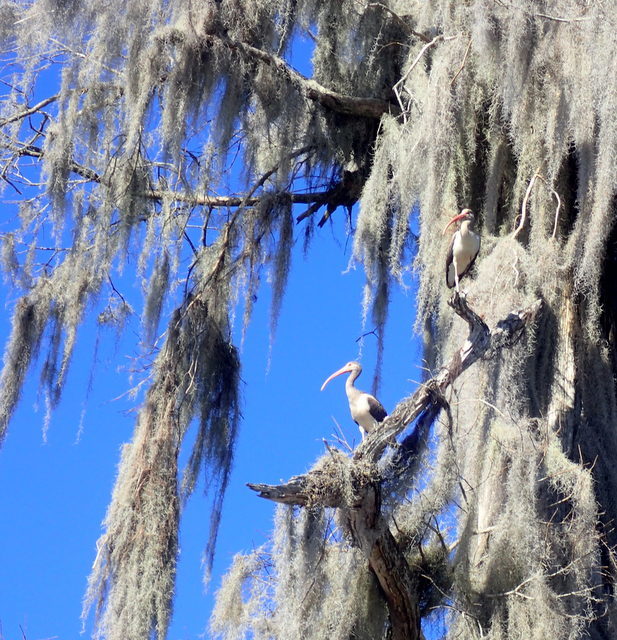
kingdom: Animalia
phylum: Chordata
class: Aves
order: Pelecaniformes
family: Threskiornithidae
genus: Eudocimus
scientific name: Eudocimus albus
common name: White ibis
